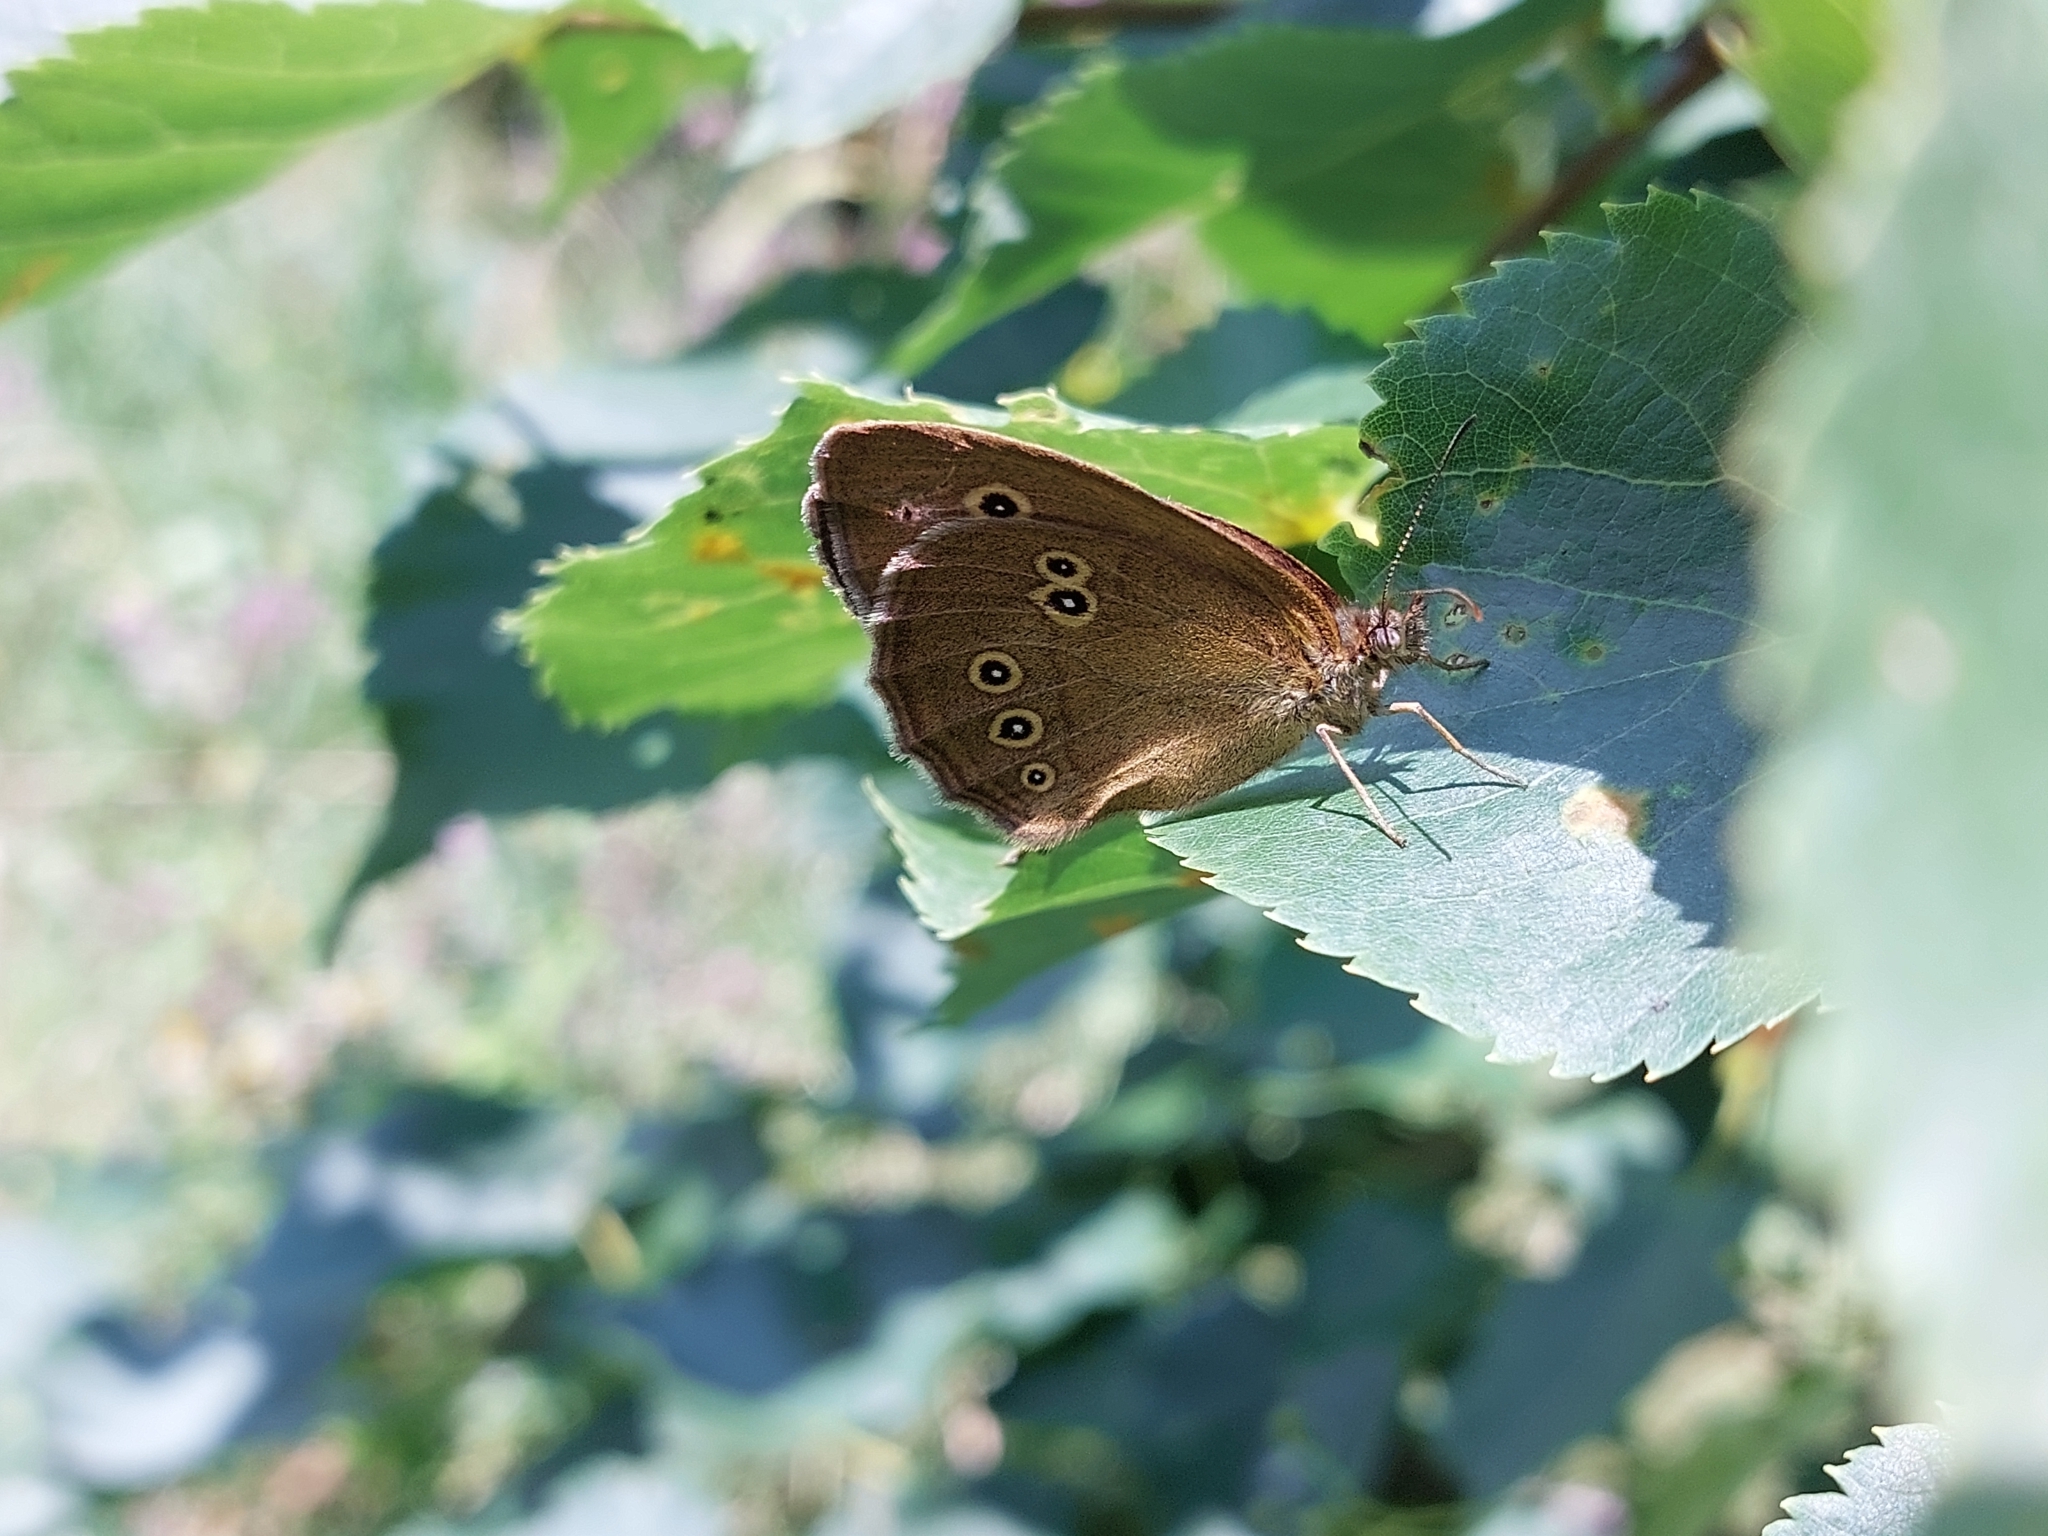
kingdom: Animalia
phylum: Arthropoda
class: Insecta
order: Lepidoptera
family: Nymphalidae
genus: Aphantopus
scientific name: Aphantopus hyperantus
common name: Ringlet
